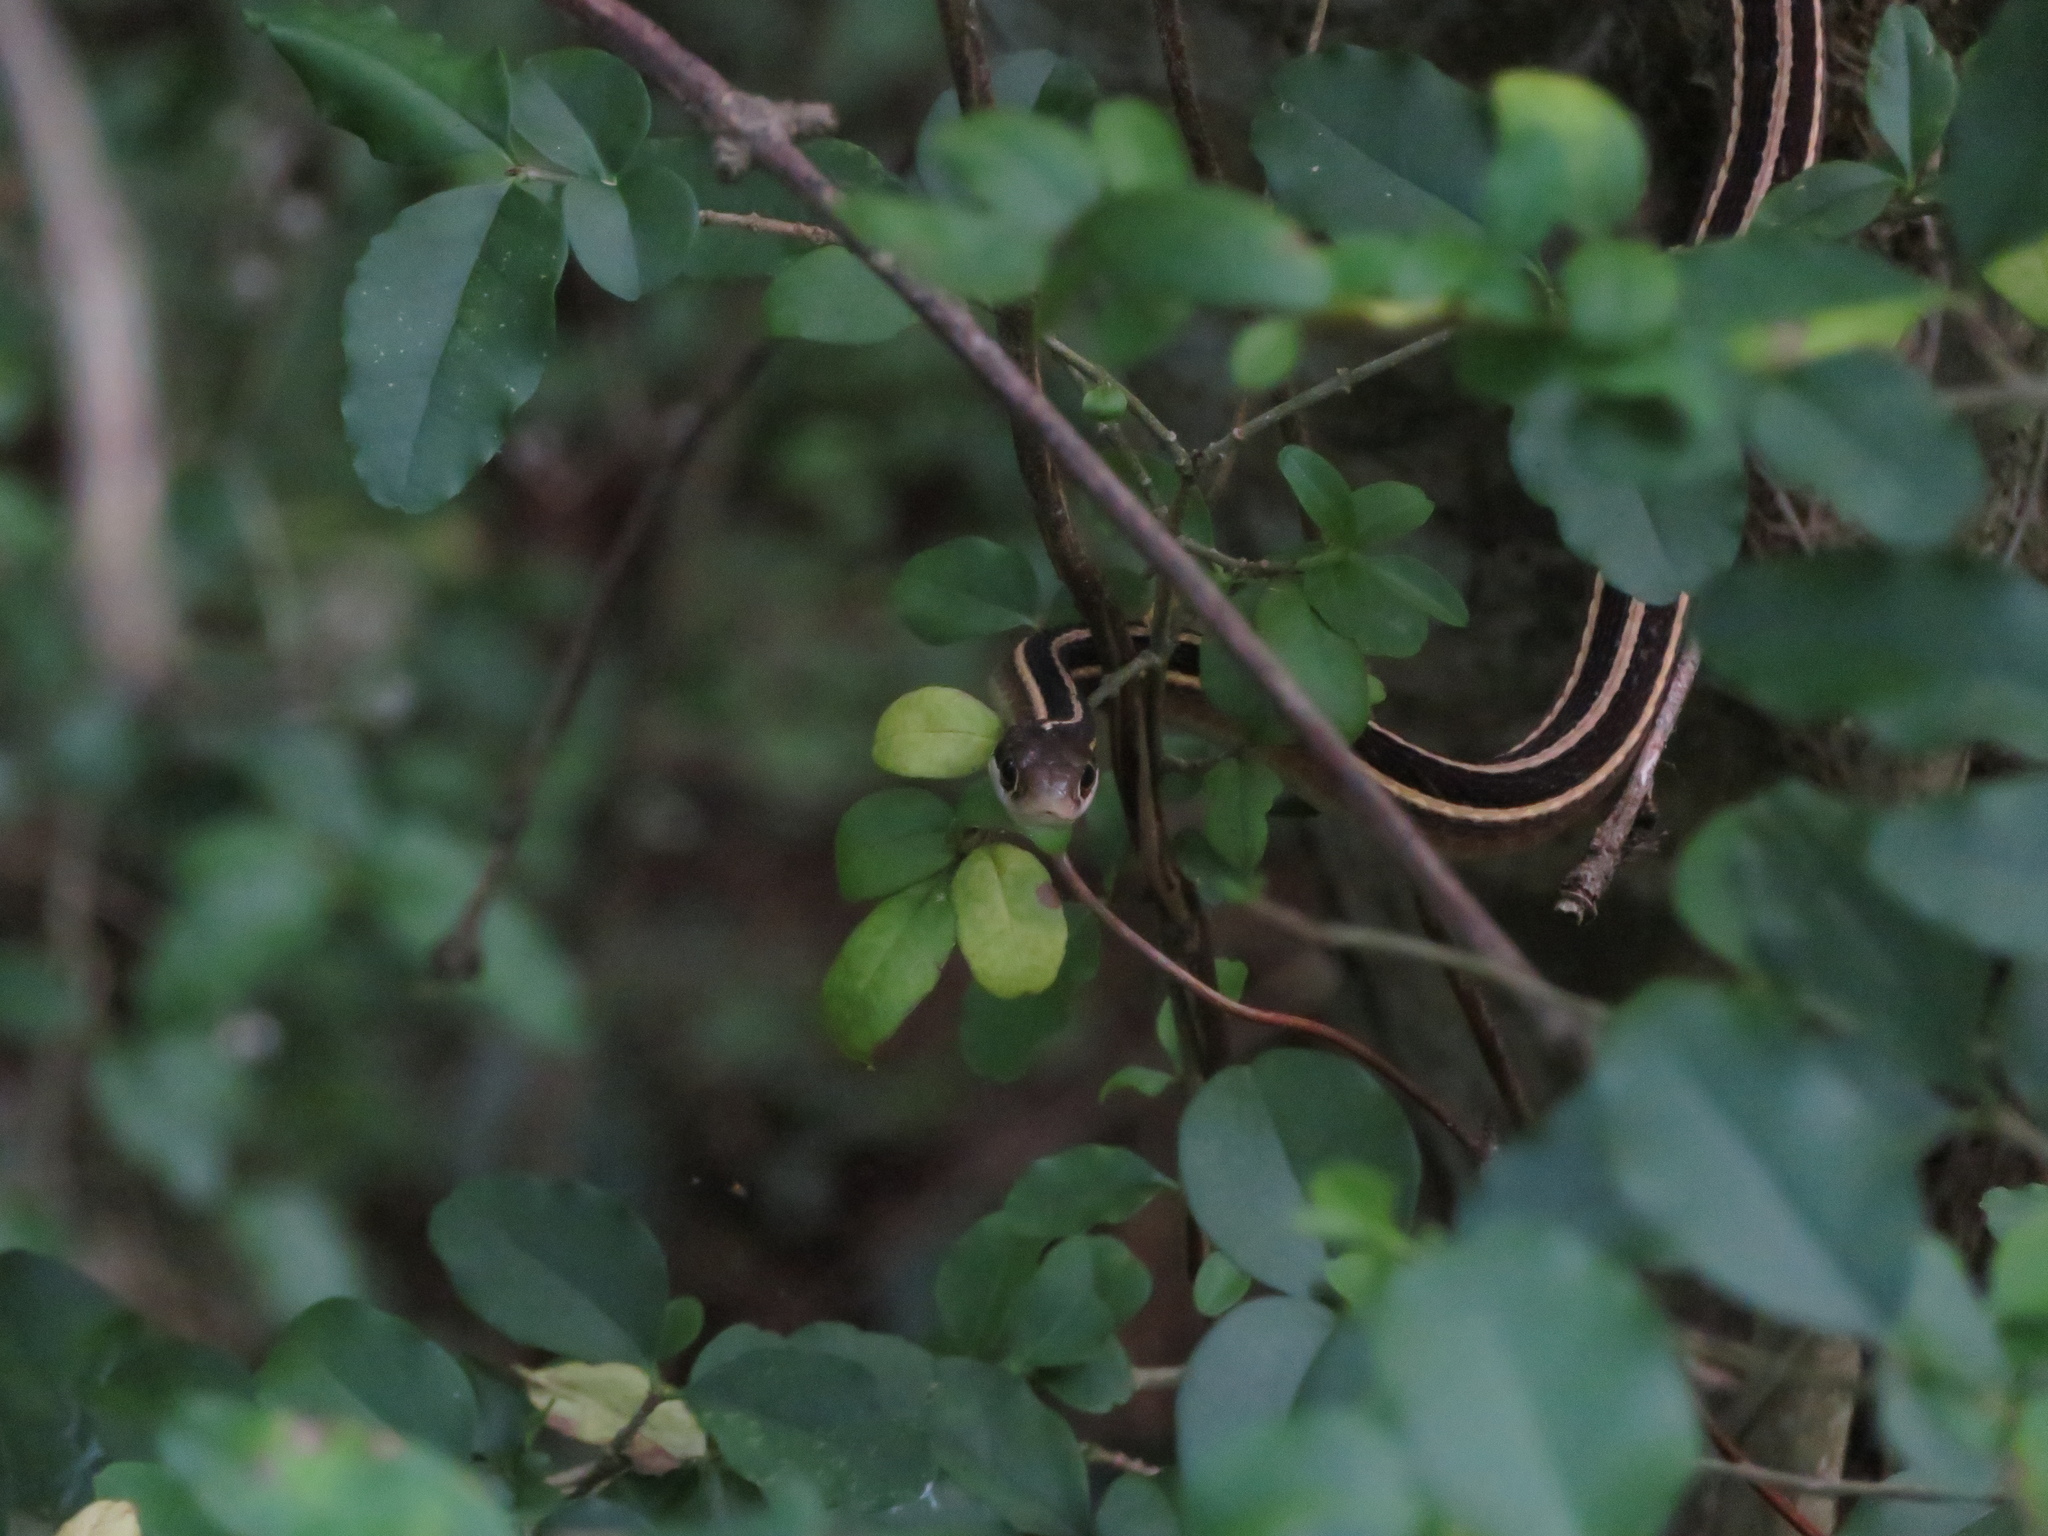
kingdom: Animalia
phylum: Chordata
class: Squamata
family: Colubridae
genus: Thamnophis
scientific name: Thamnophis saurita
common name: Eastern ribbonsnake
